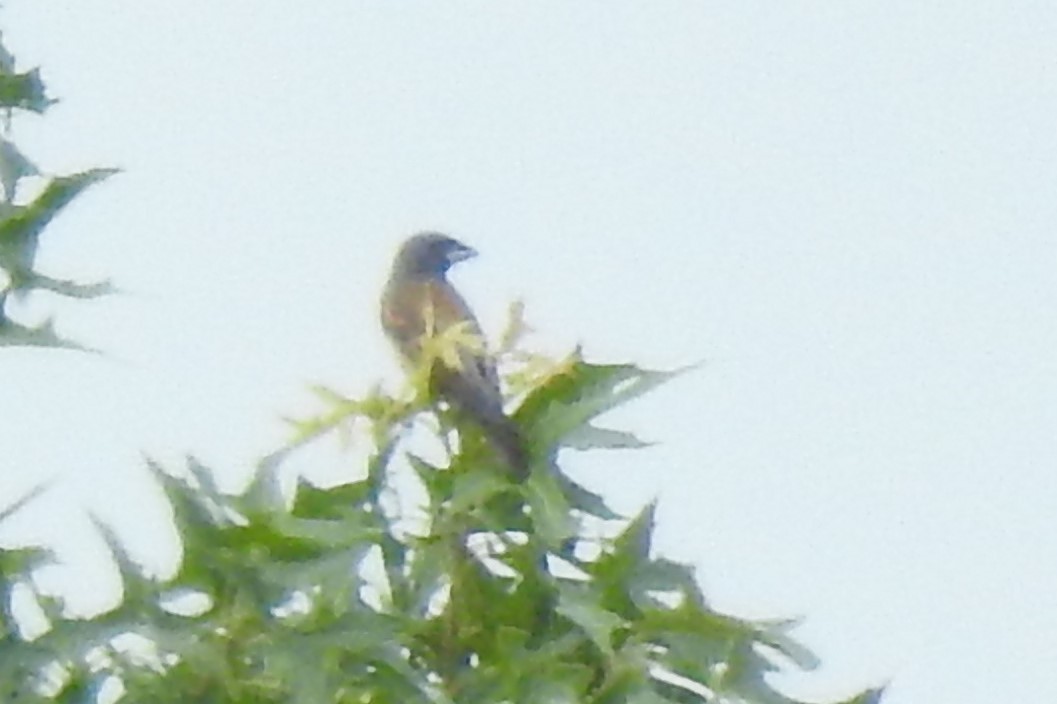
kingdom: Animalia
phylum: Chordata
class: Aves
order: Passeriformes
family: Cardinalidae
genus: Passerina
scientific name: Passerina caerulea
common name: Blue grosbeak
